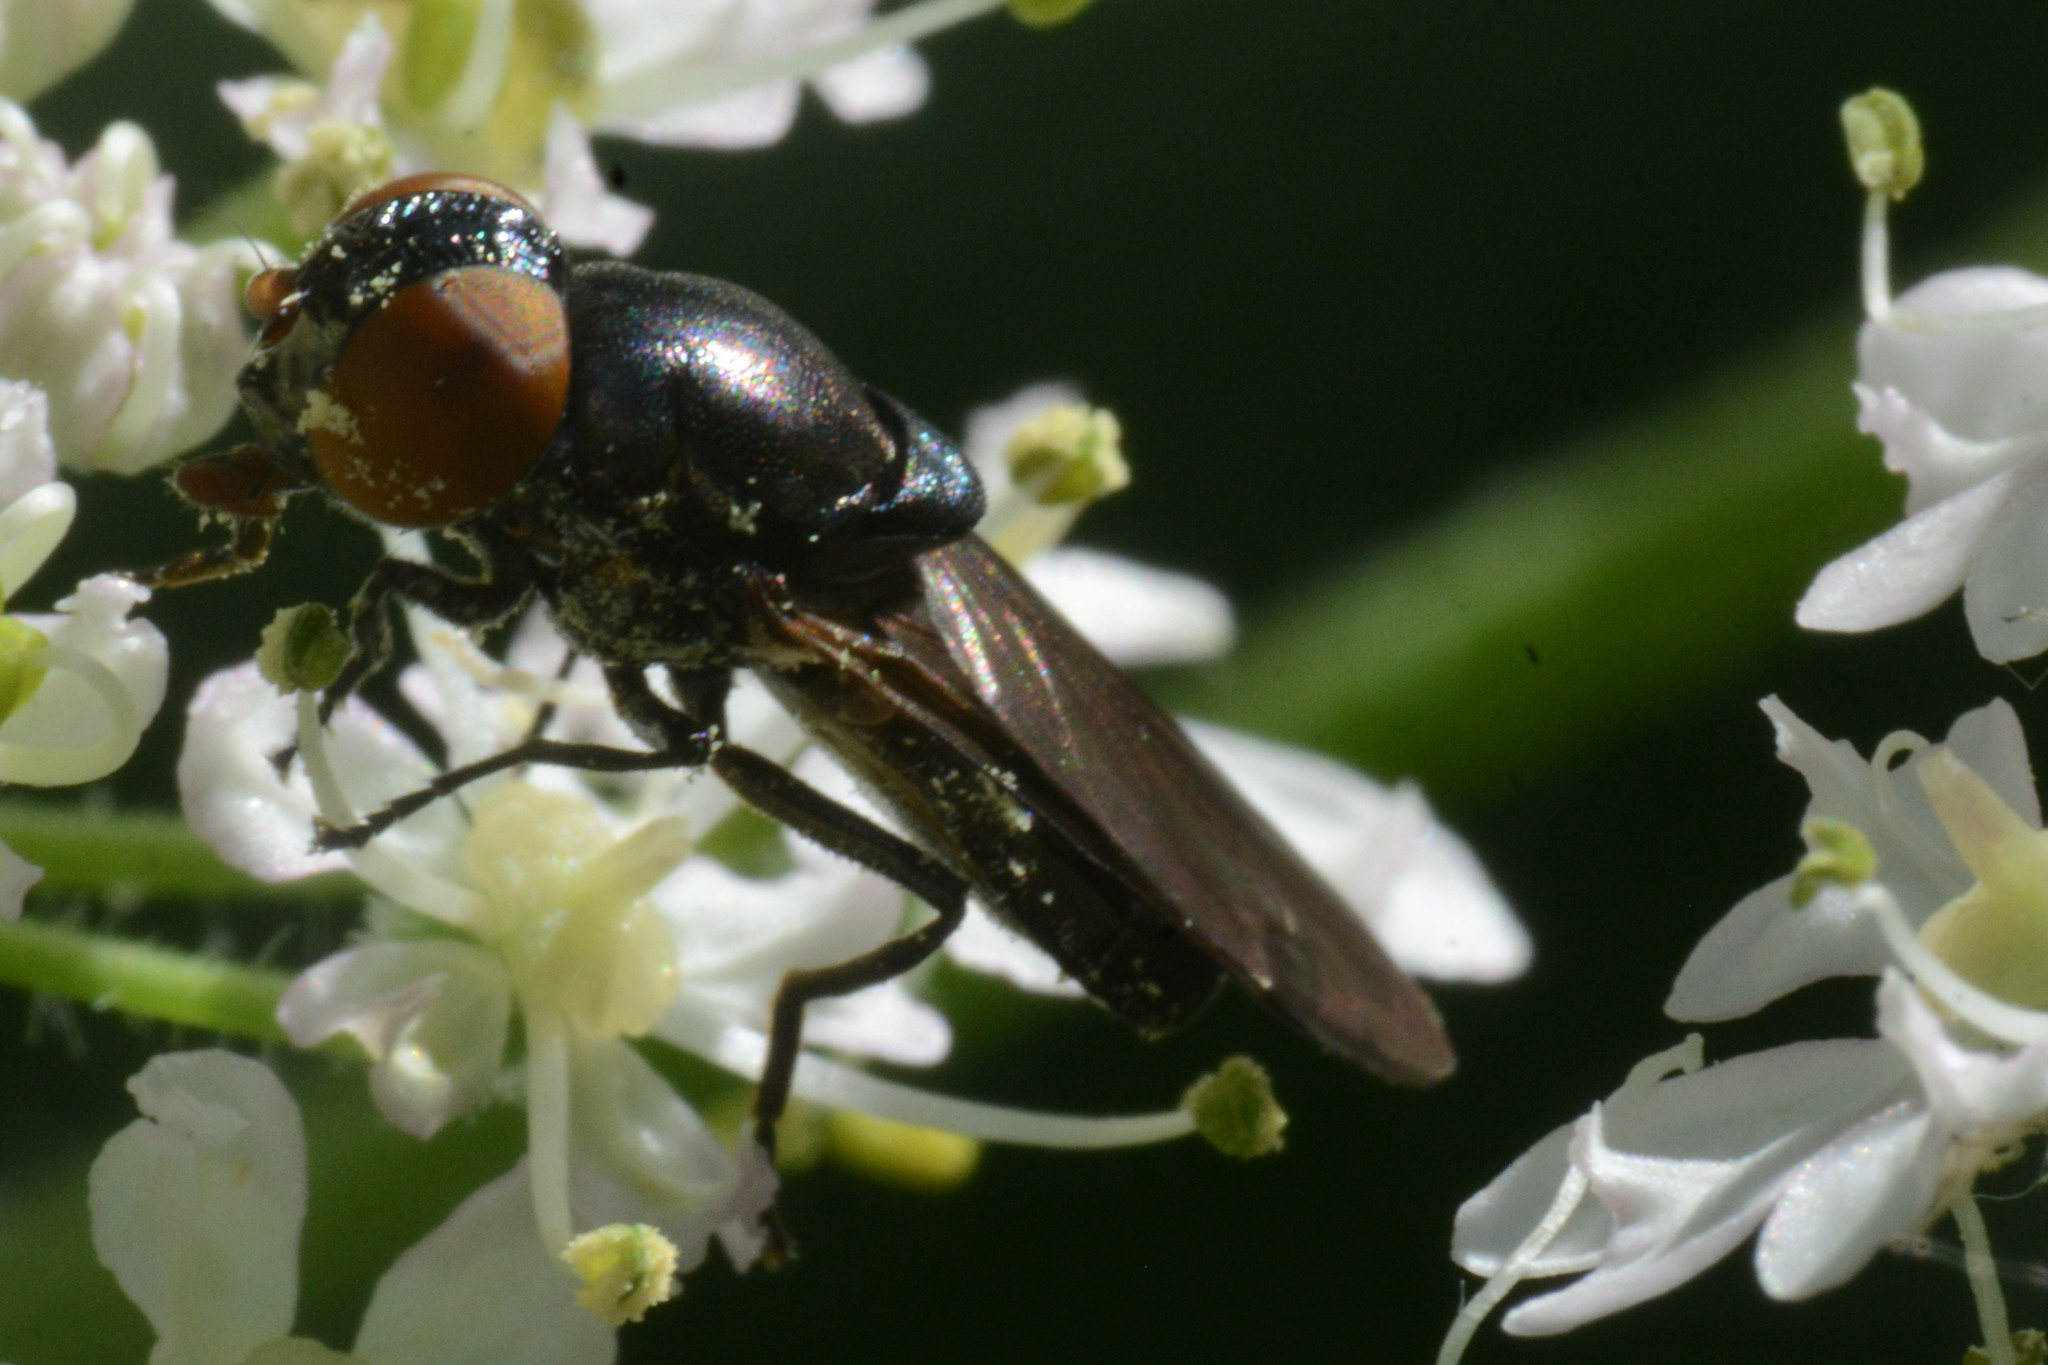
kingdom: Animalia
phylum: Arthropoda
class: Insecta
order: Diptera
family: Syrphidae
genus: Chrysogaster
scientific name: Chrysogaster solstitialis
